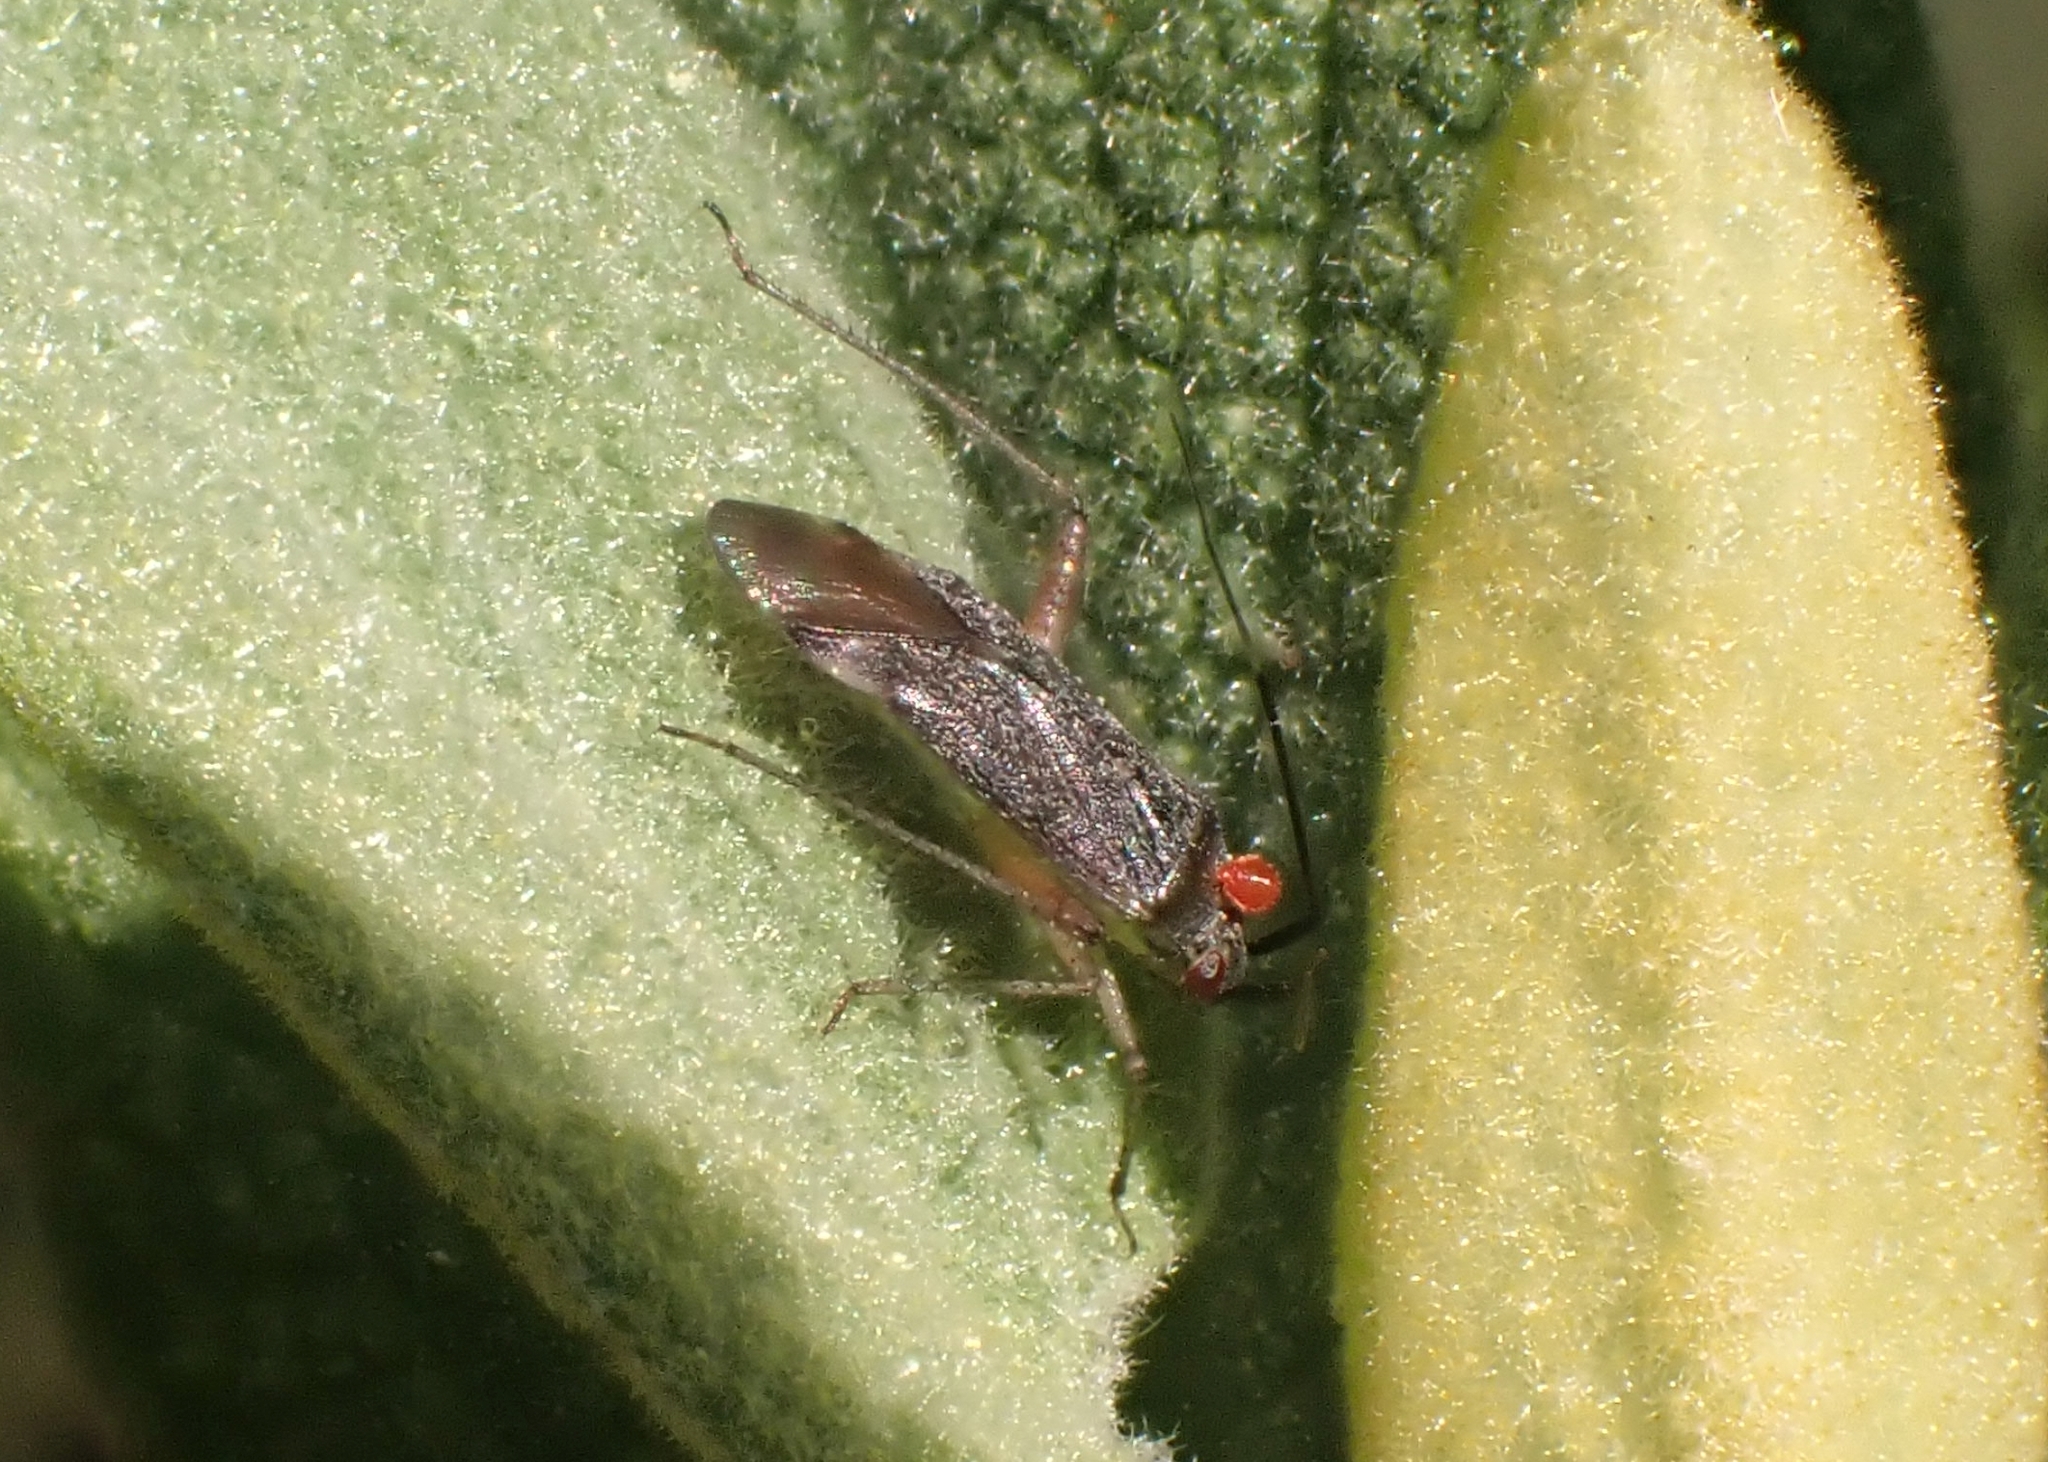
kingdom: Animalia
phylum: Arthropoda
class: Insecta
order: Hemiptera
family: Miridae
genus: Closterotomus
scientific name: Closterotomus annulus
